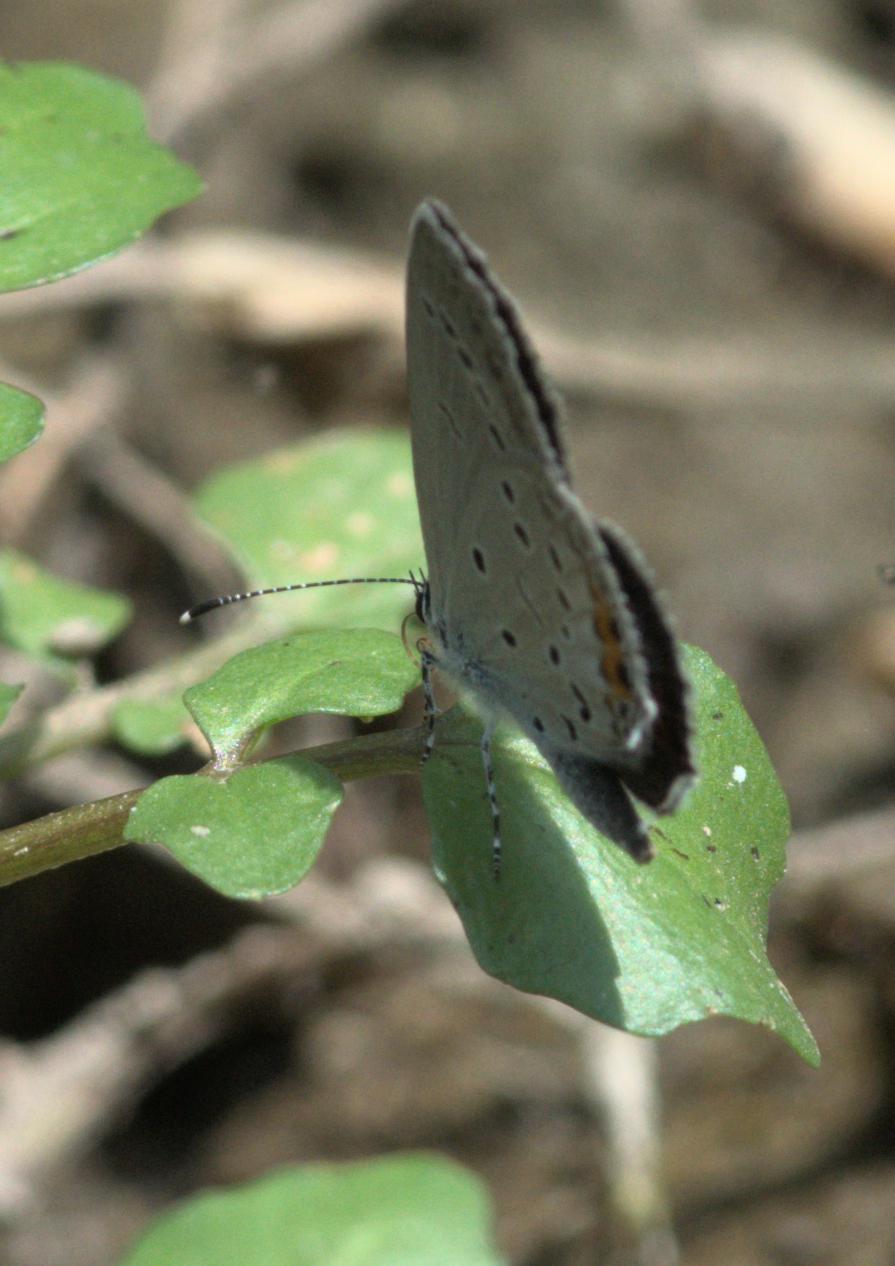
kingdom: Animalia
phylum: Arthropoda
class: Insecta
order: Lepidoptera
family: Lycaenidae
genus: Elkalyce
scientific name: Elkalyce argiades
